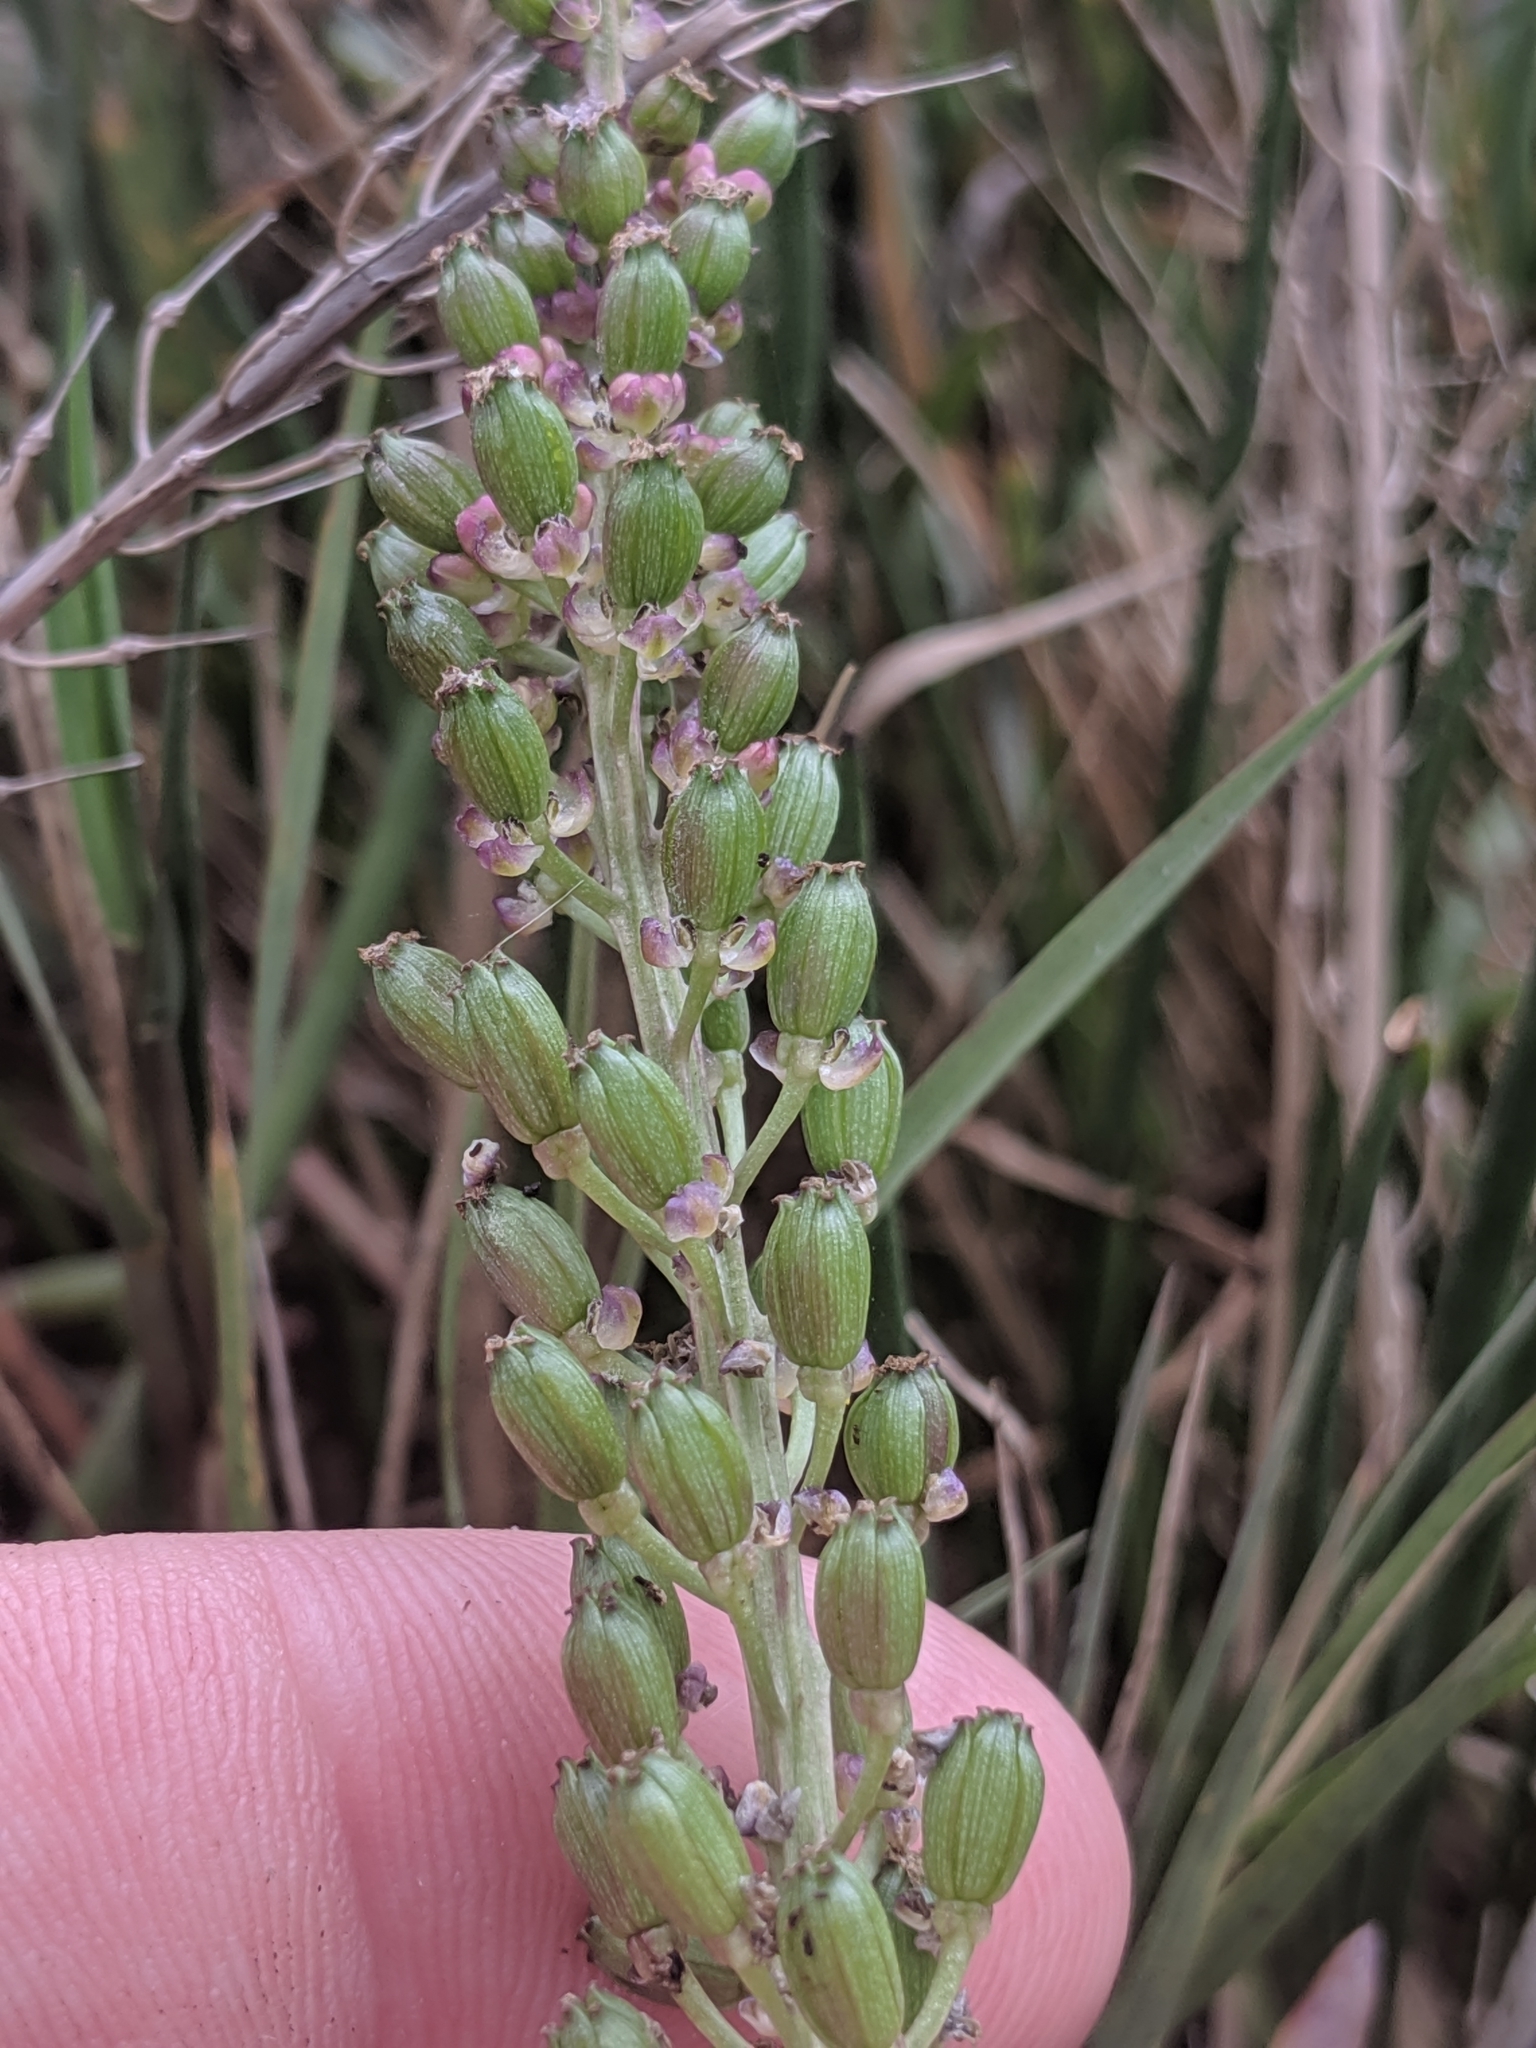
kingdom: Plantae
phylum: Tracheophyta
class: Liliopsida
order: Alismatales
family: Juncaginaceae
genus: Triglochin
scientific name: Triglochin maritima
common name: Sea arrowgrass
